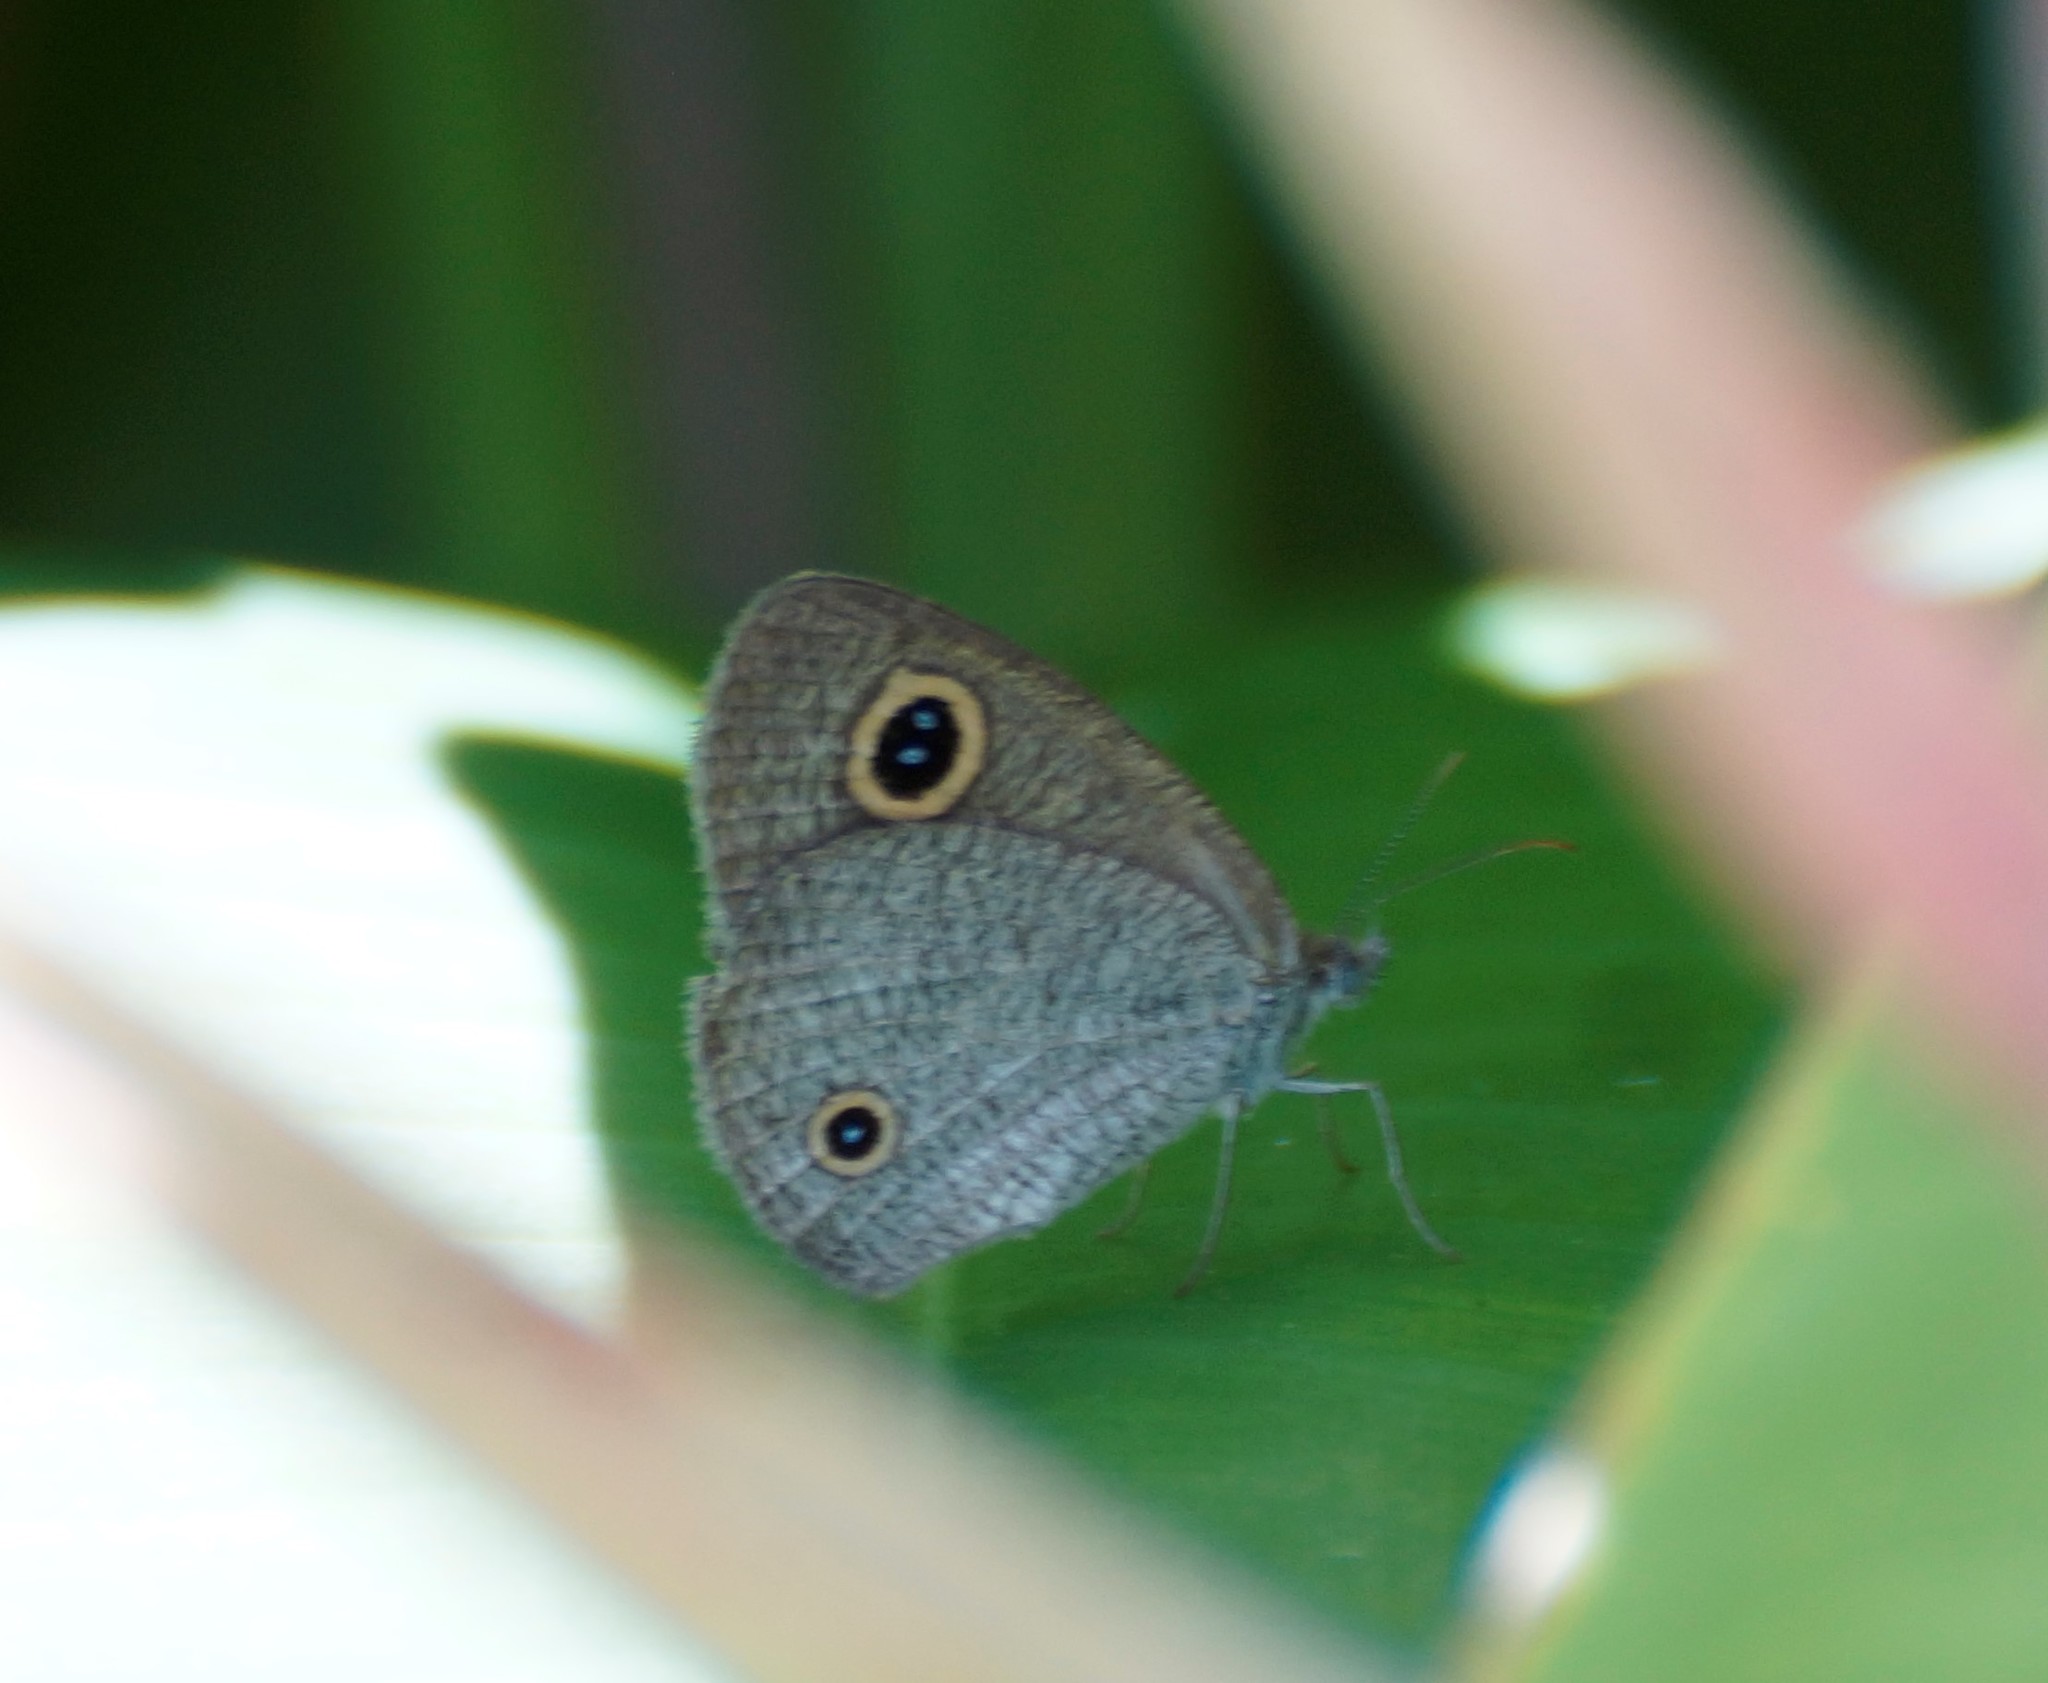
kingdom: Animalia
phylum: Arthropoda
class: Insecta
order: Lepidoptera
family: Nymphalidae
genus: Ypthima
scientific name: Ypthima arctous
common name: Dusky knight
